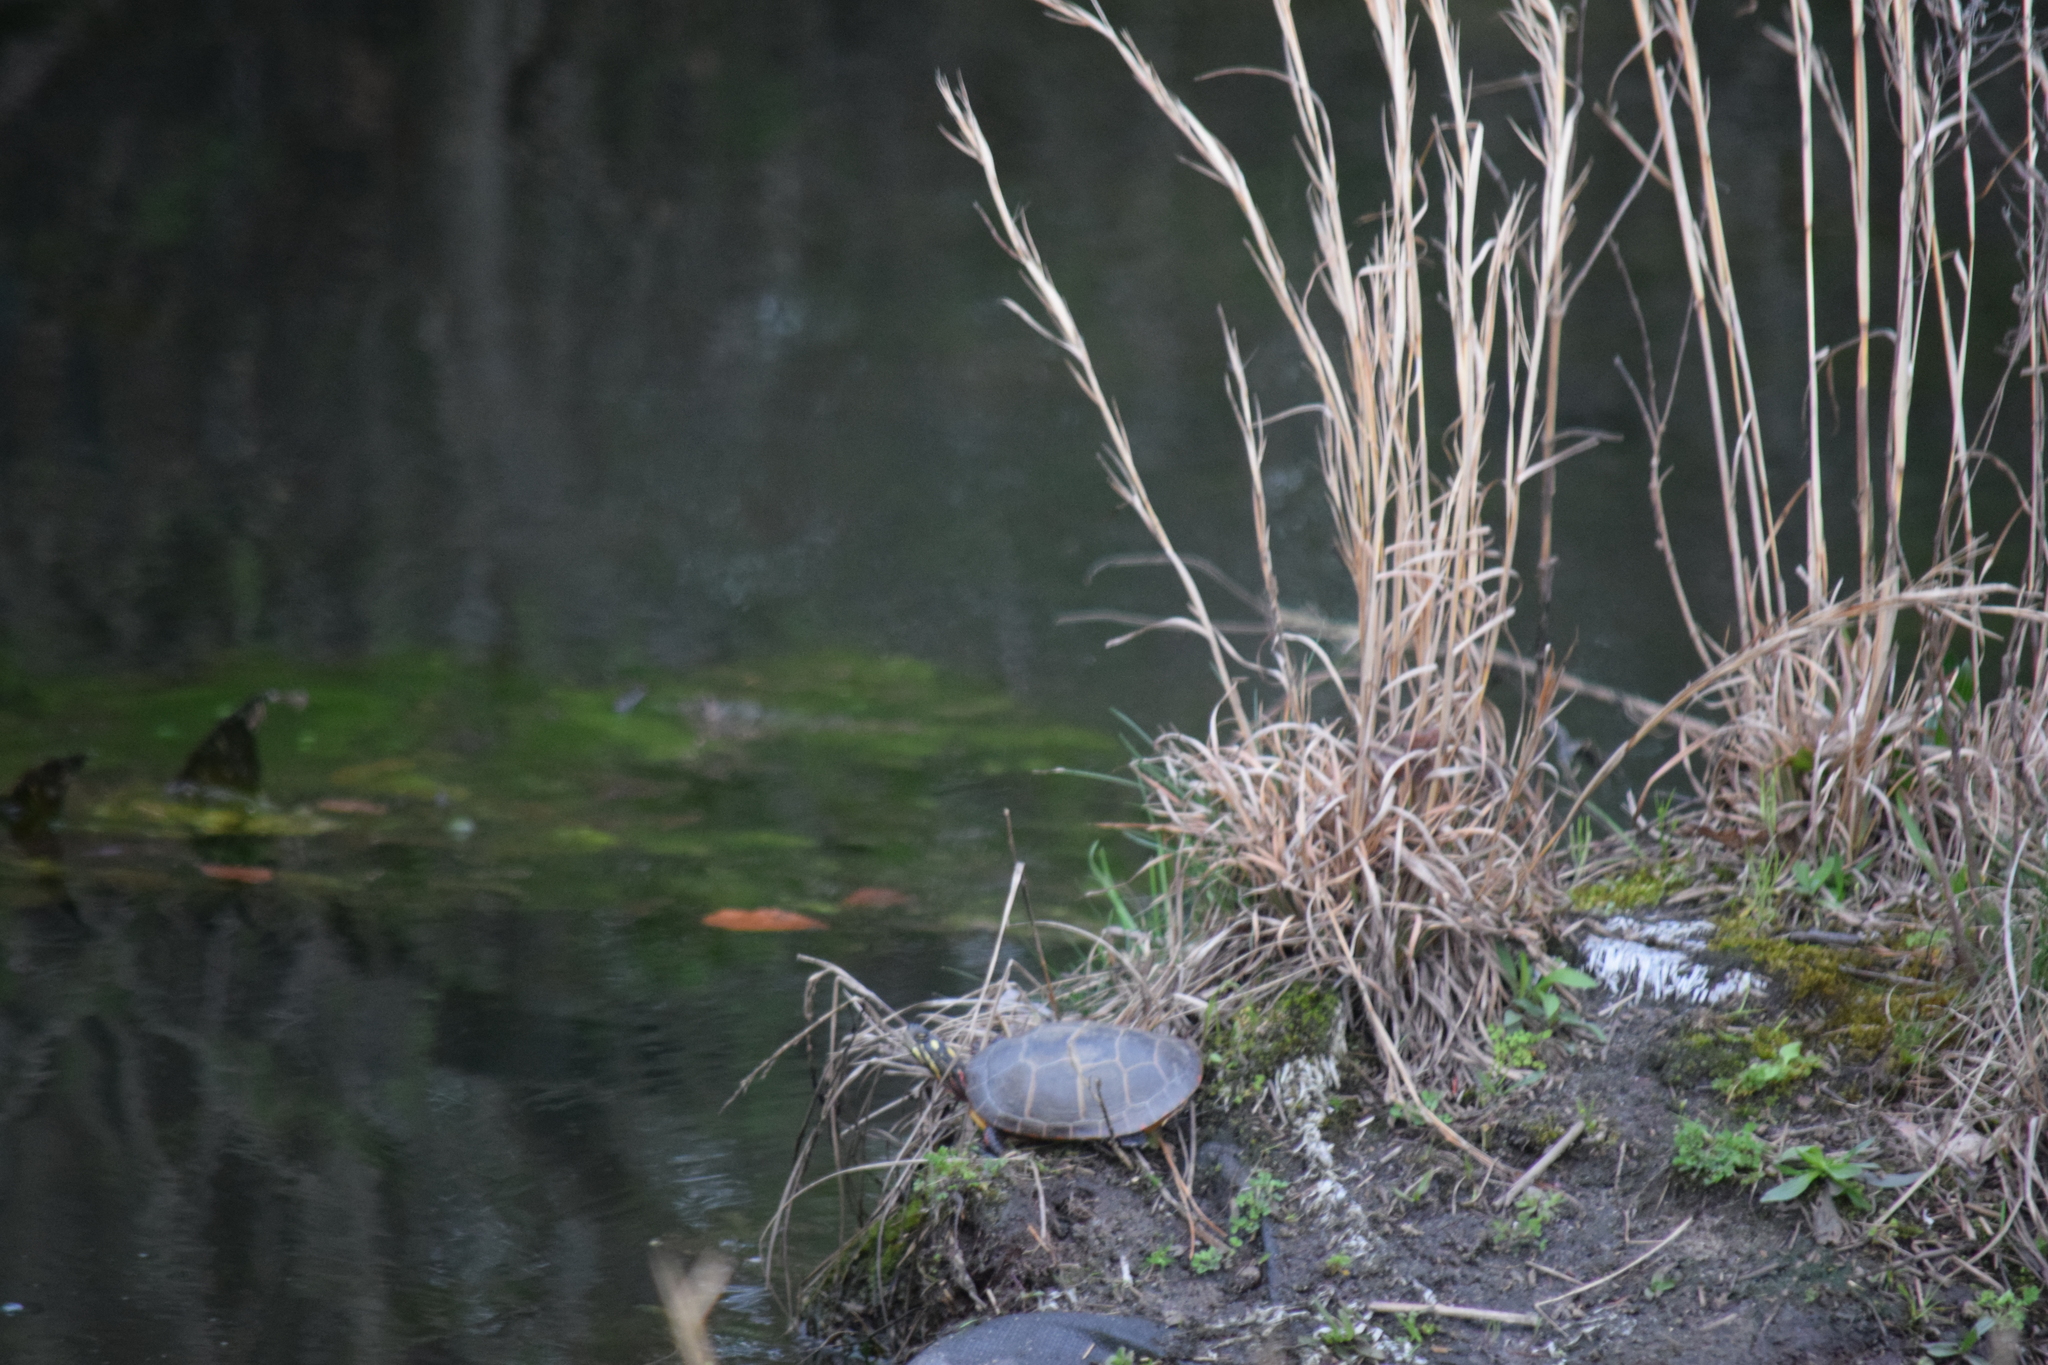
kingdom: Animalia
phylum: Chordata
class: Testudines
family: Emydidae
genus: Chrysemys
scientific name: Chrysemys picta
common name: Painted turtle
